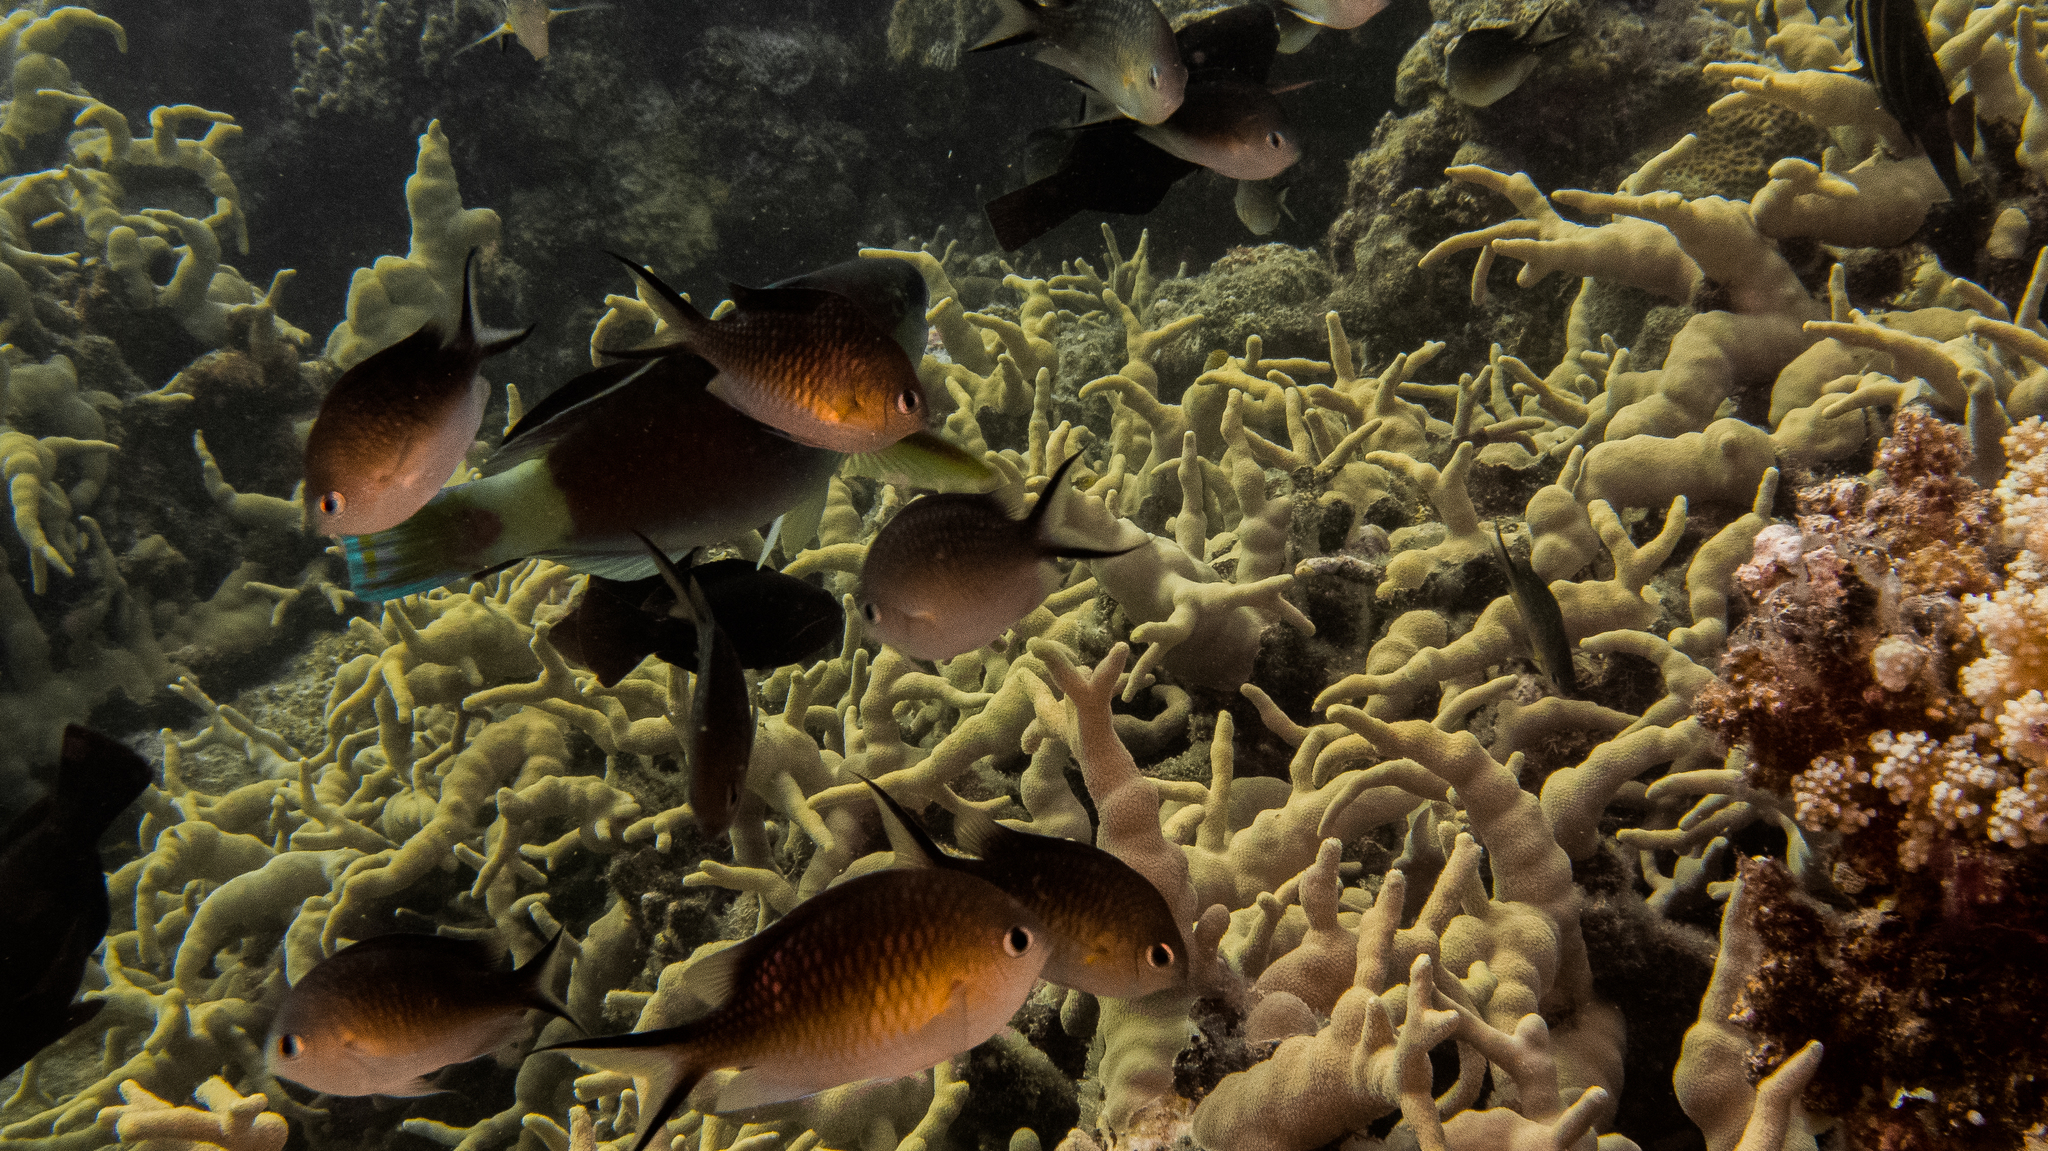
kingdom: Animalia
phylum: Chordata
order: Perciformes
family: Pomacentridae
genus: Chromis
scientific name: Chromis ternatensis
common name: Ternate chromis
